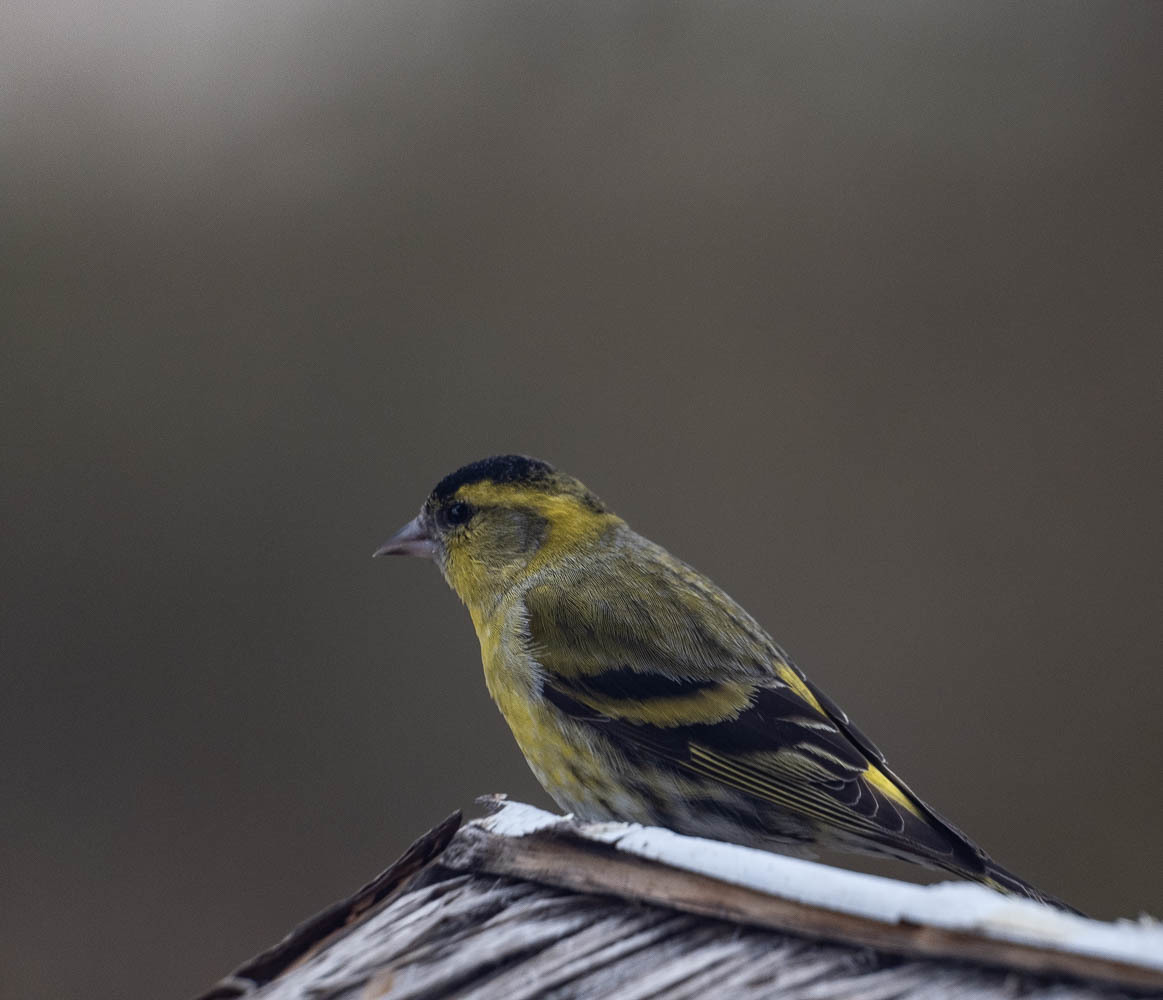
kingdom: Animalia
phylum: Chordata
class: Aves
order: Passeriformes
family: Fringillidae
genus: Spinus
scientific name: Spinus spinus
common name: Eurasian siskin
